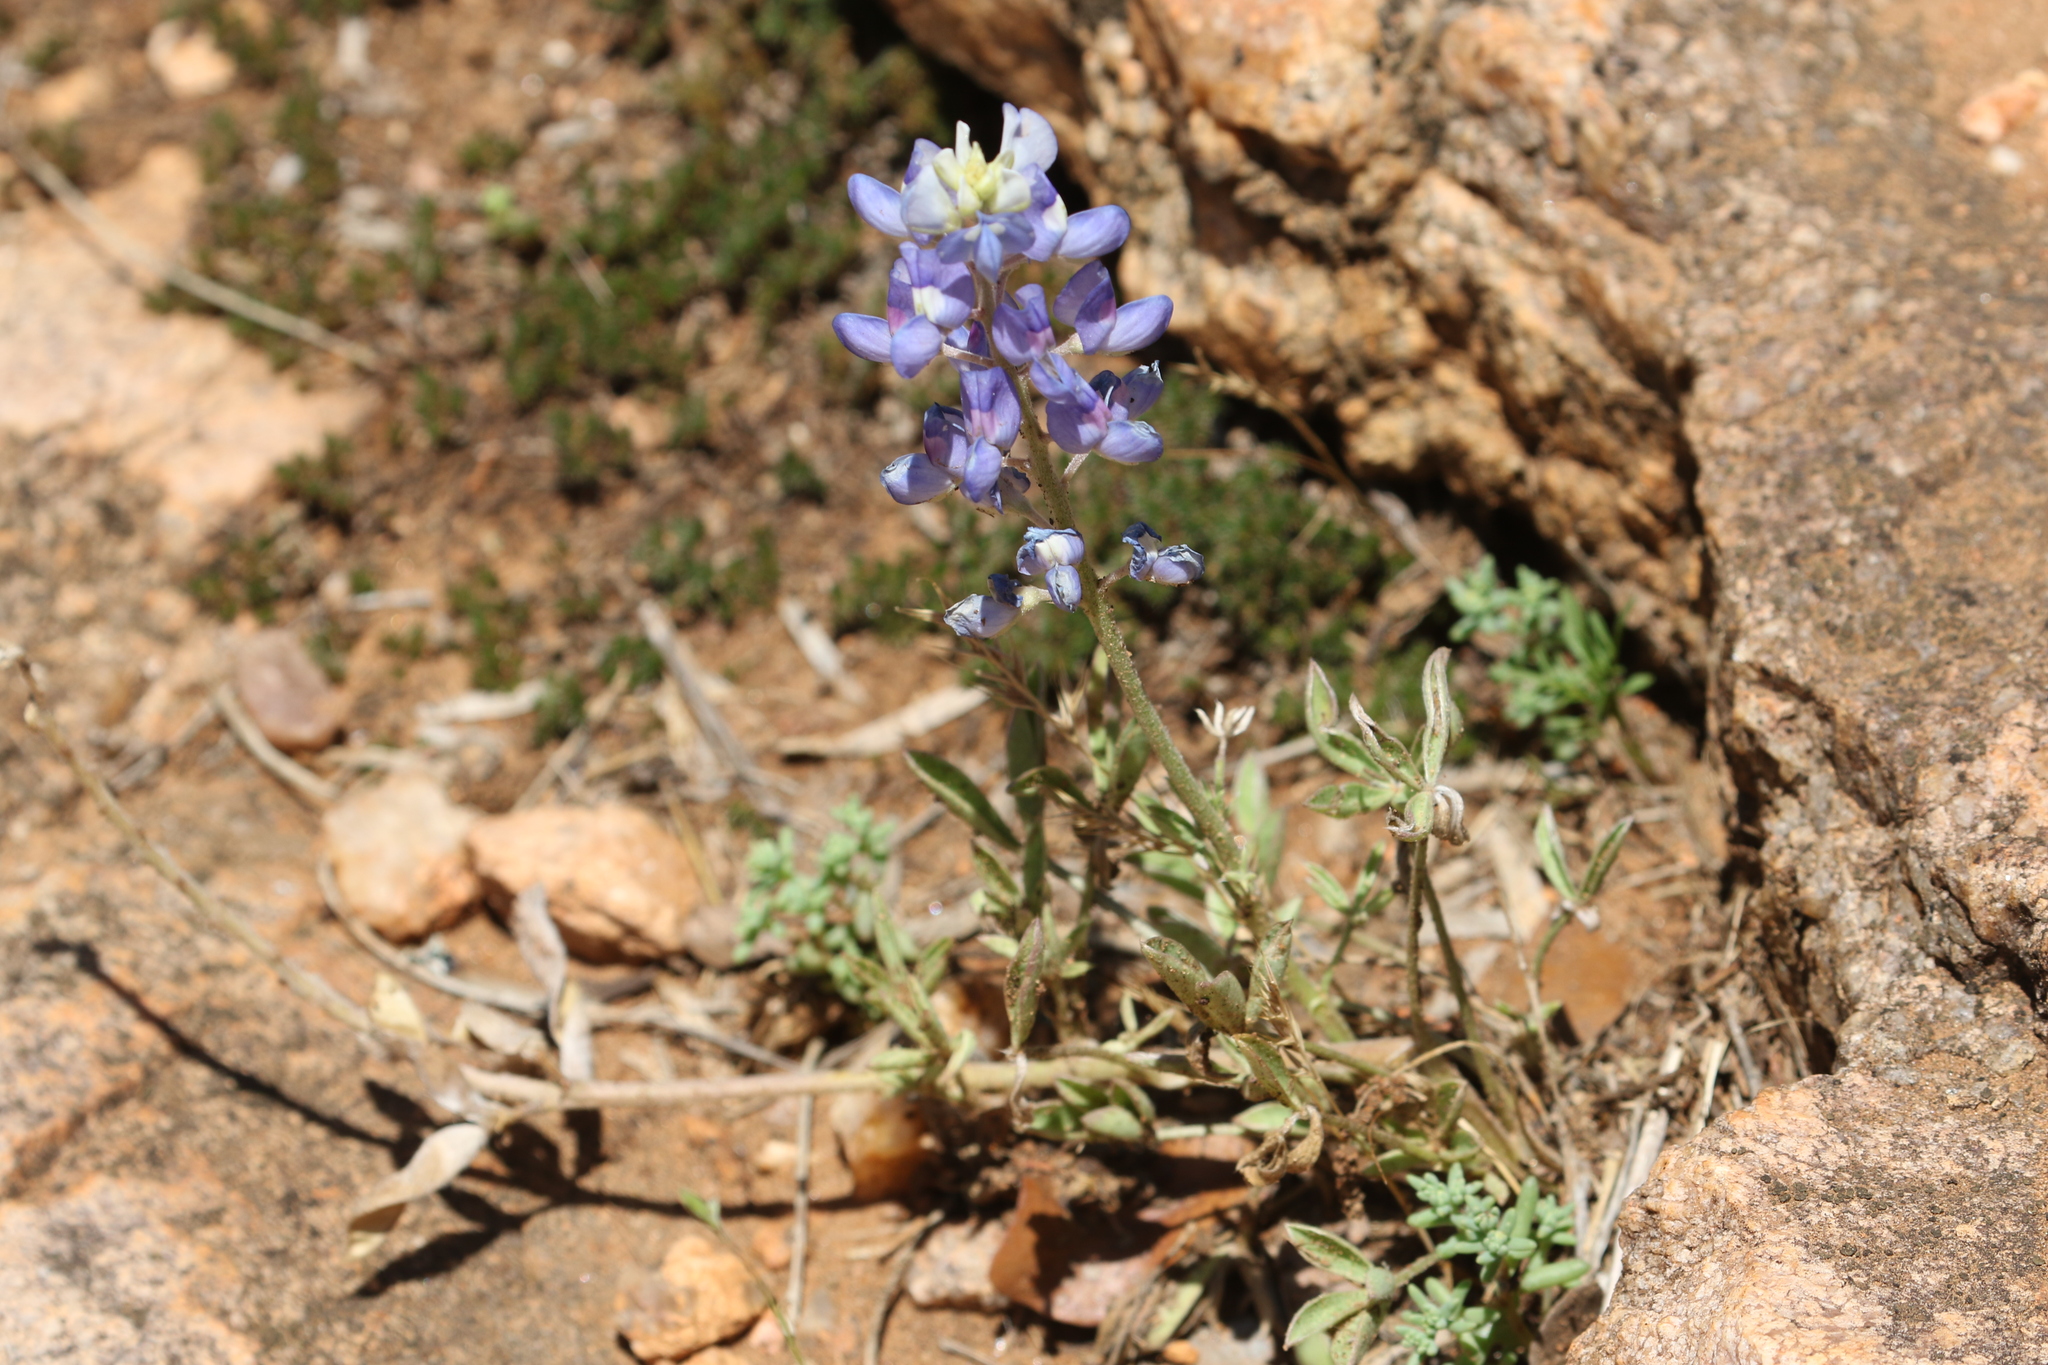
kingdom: Plantae
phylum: Tracheophyta
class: Magnoliopsida
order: Fabales
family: Fabaceae
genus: Lupinus
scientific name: Lupinus texensis
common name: Texas bluebonnet
